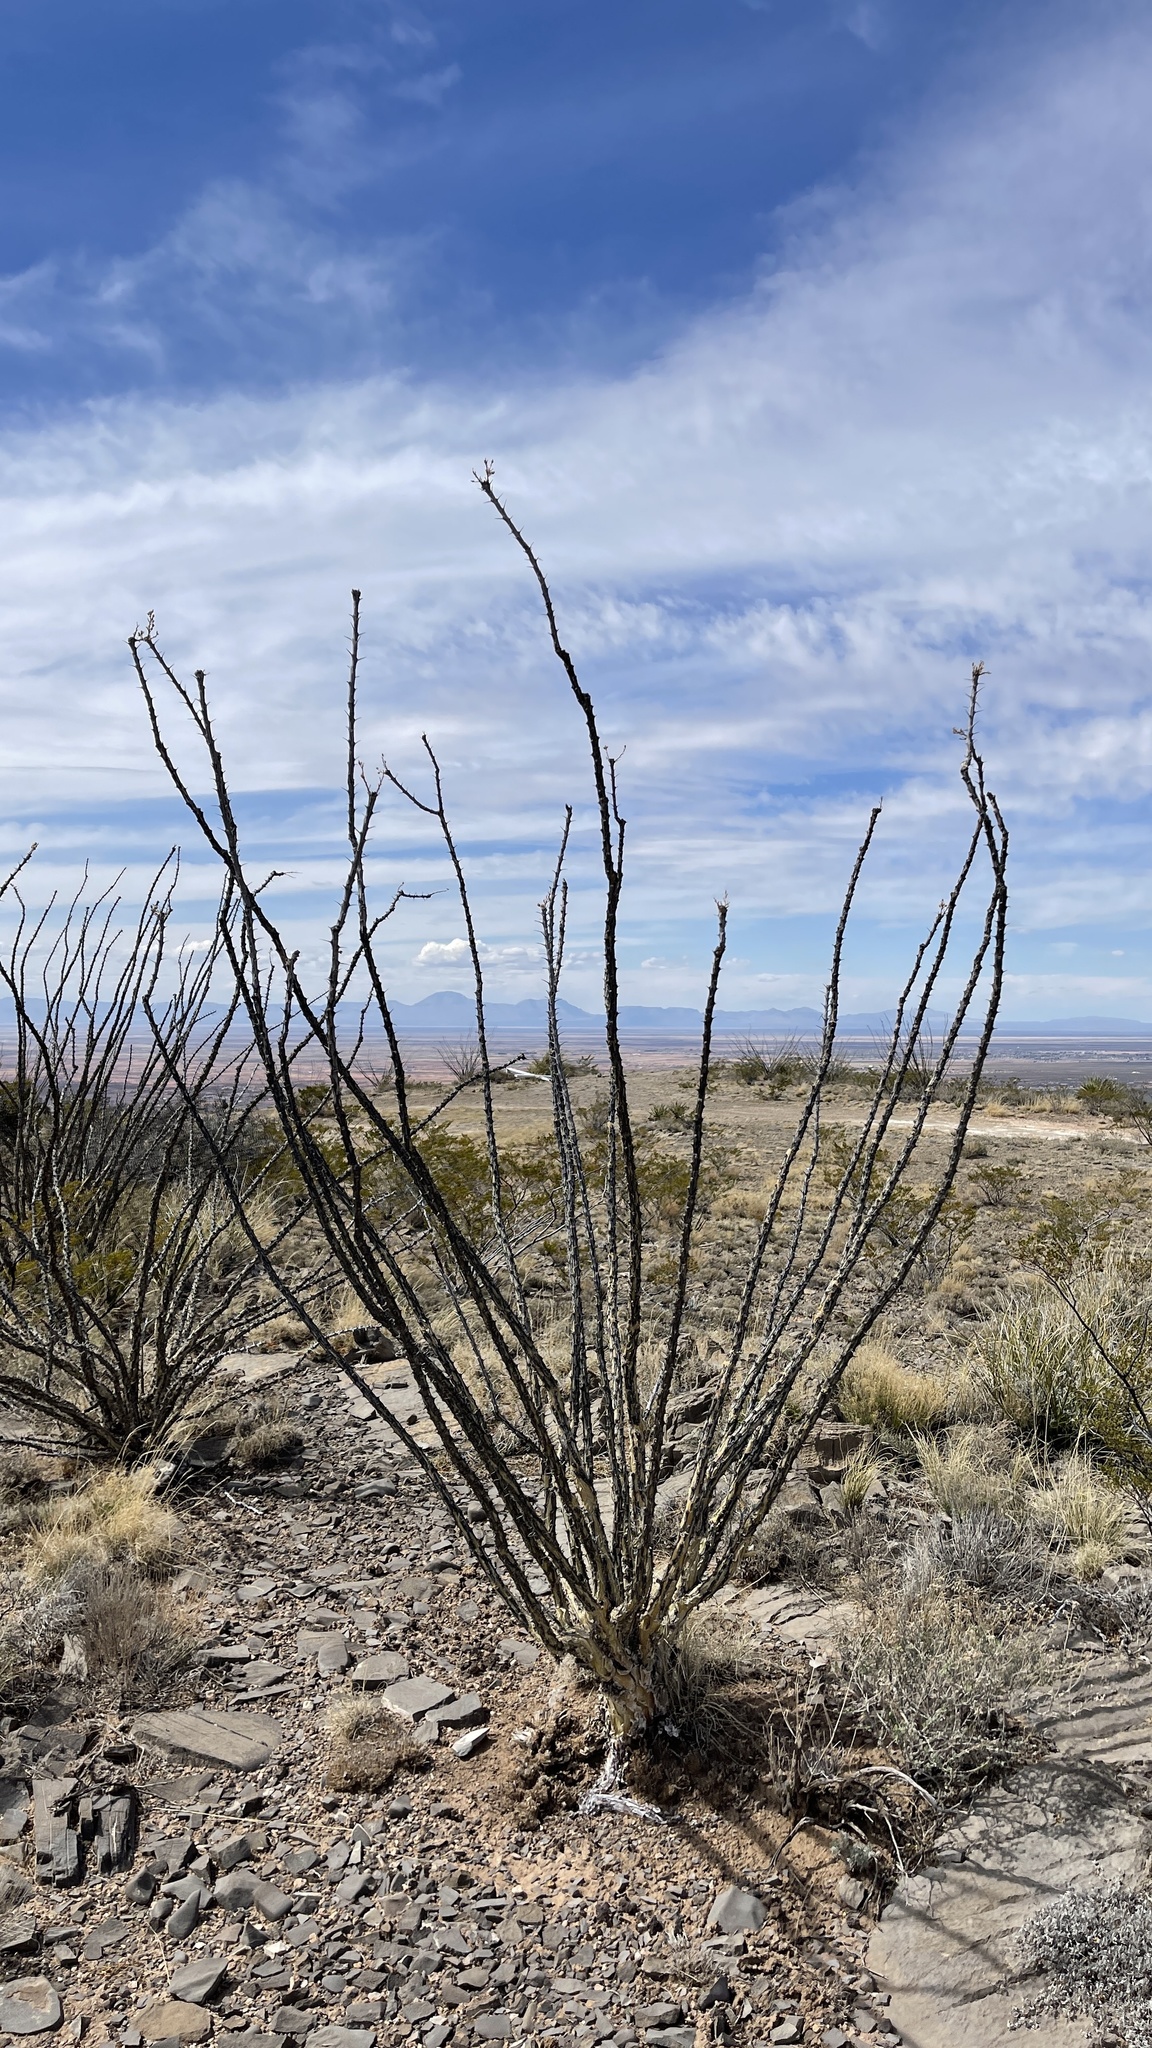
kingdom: Plantae
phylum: Tracheophyta
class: Magnoliopsida
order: Ericales
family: Fouquieriaceae
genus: Fouquieria
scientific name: Fouquieria splendens
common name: Vine-cactus
